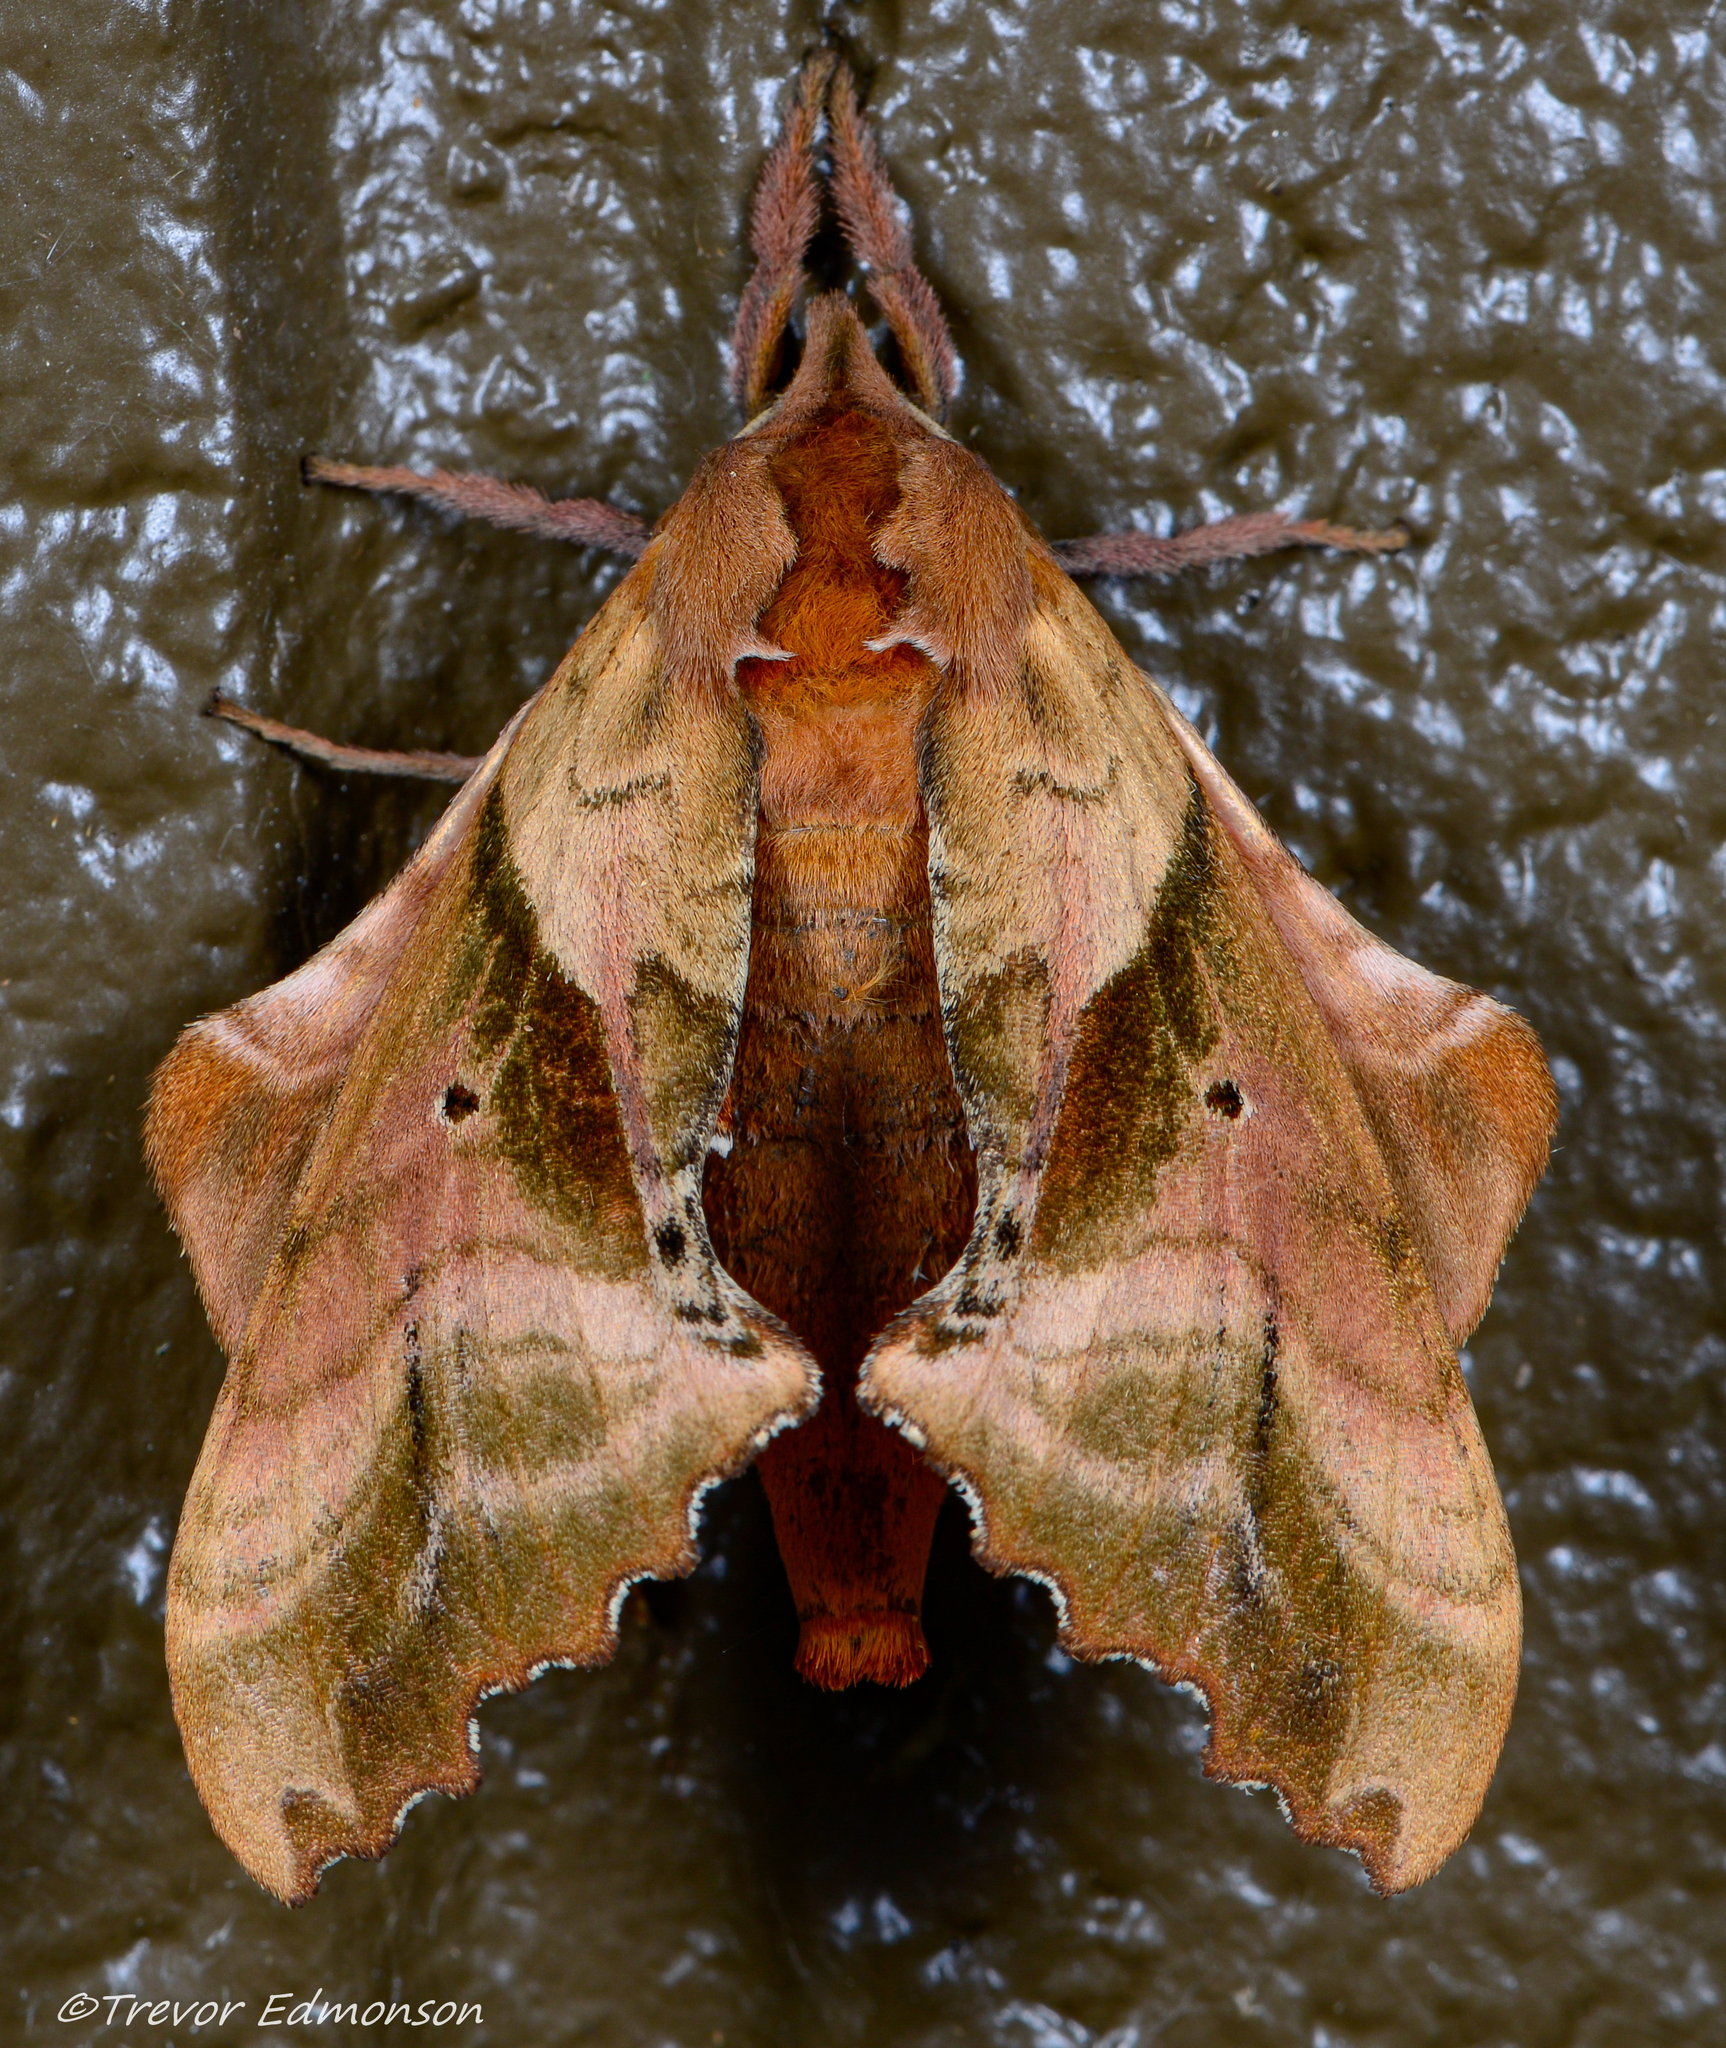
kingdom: Animalia
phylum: Arthropoda
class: Insecta
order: Lepidoptera
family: Sphingidae
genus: Paonias
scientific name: Paonias excaecata
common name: Blind-eyed sphinx
